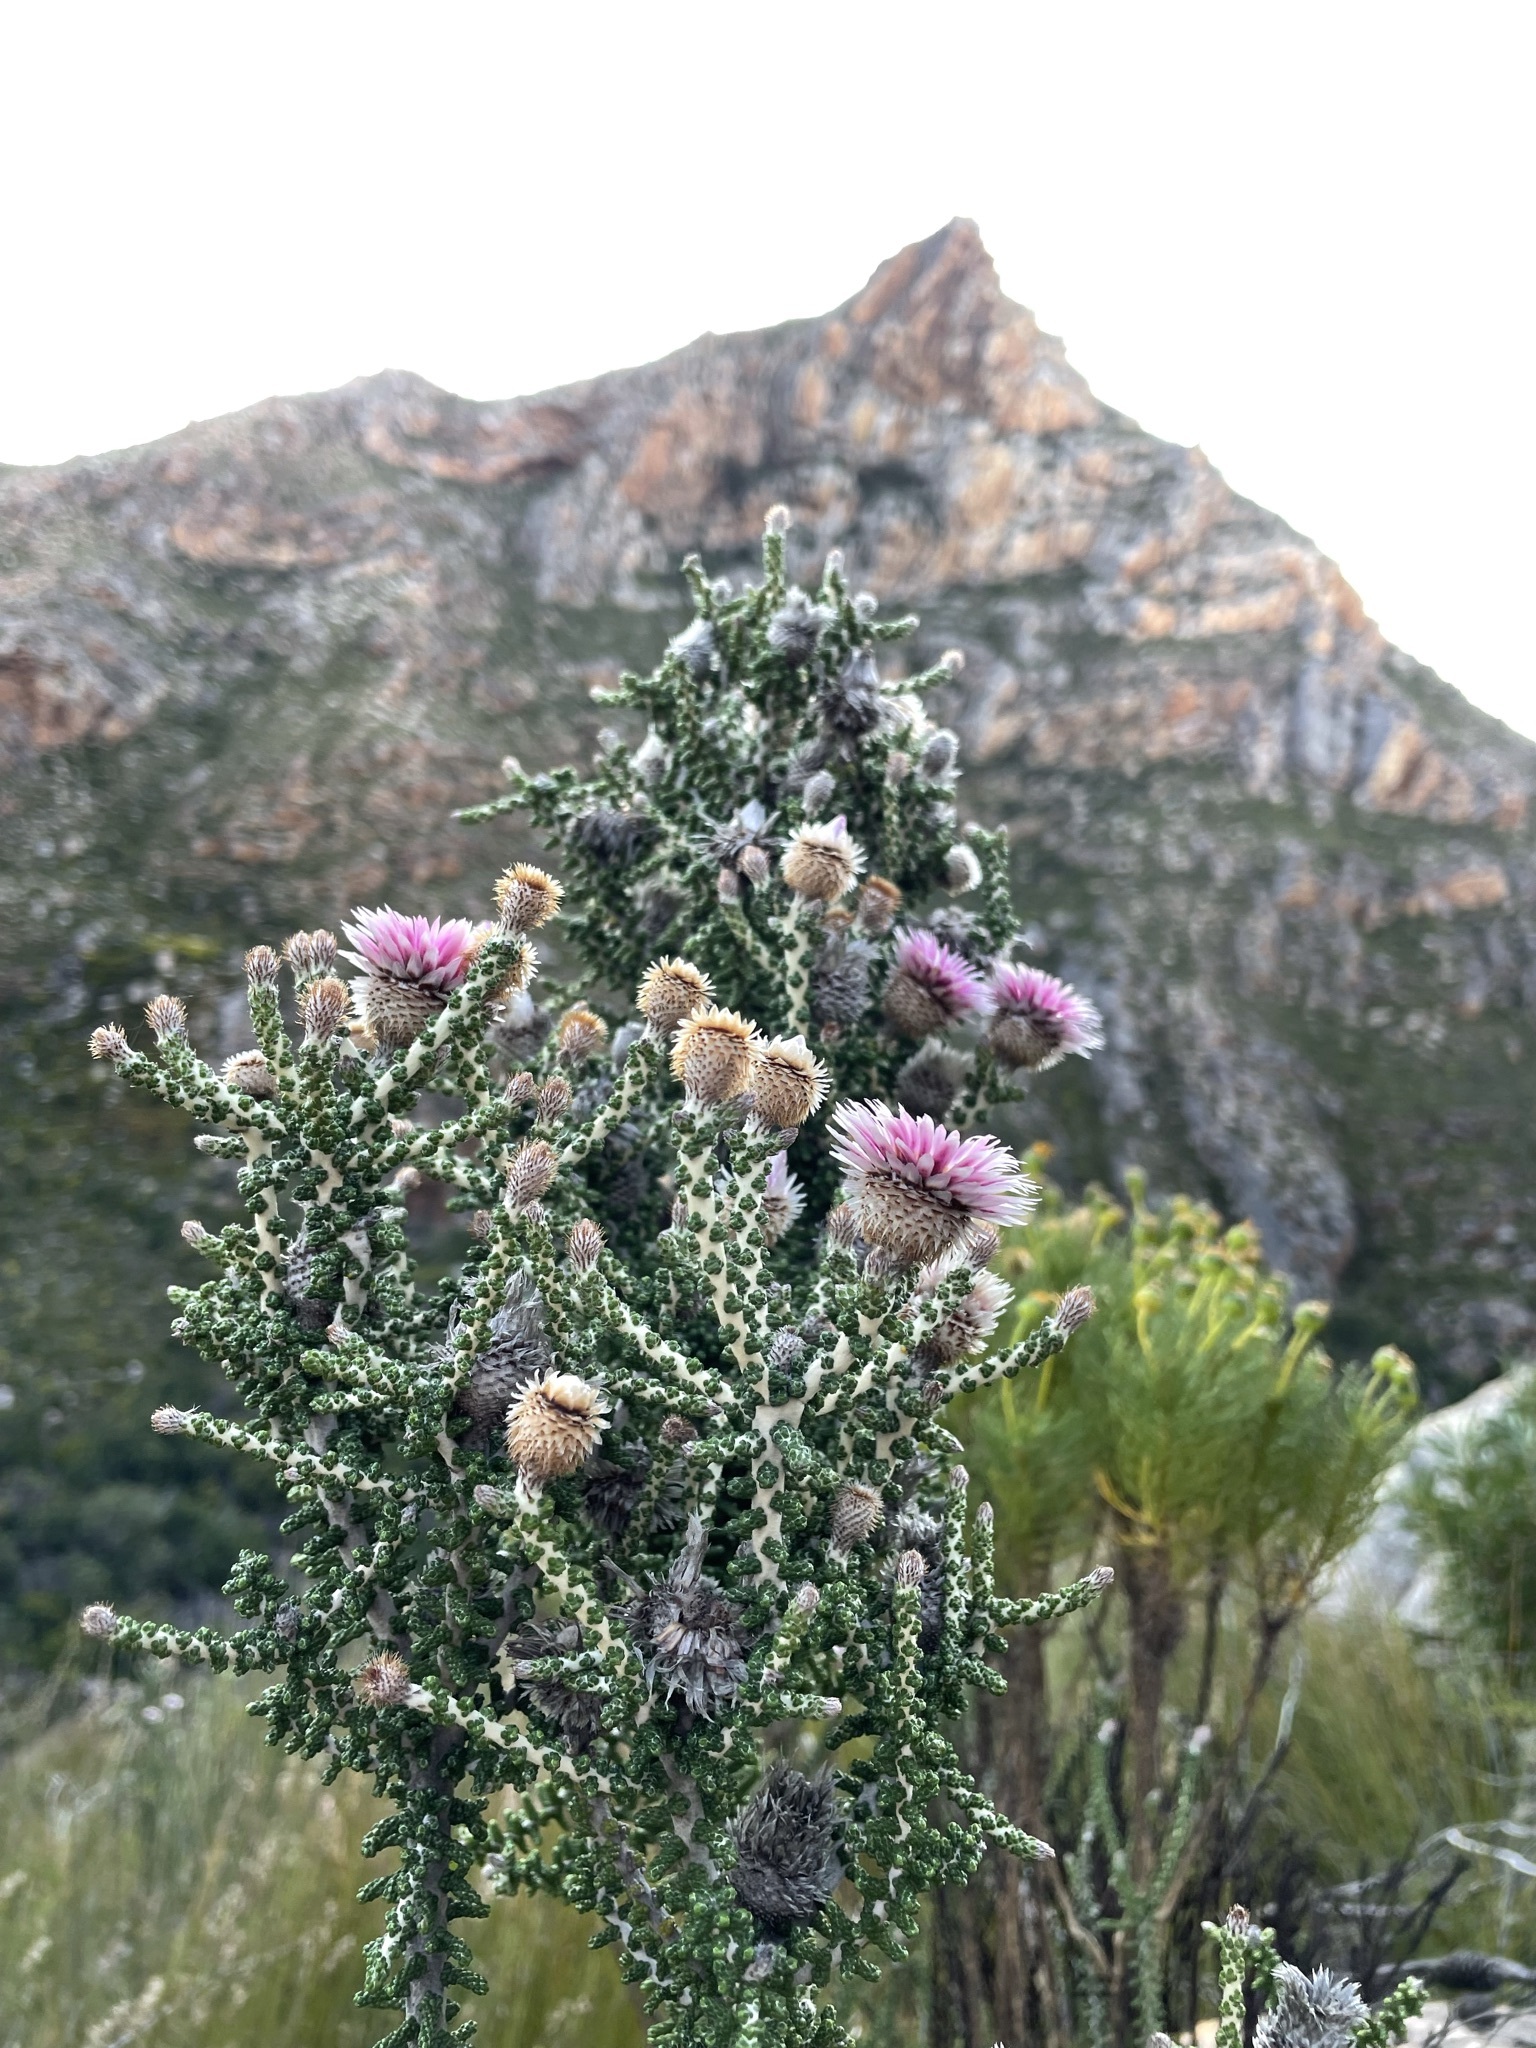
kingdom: Plantae
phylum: Tracheophyta
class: Magnoliopsida
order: Asterales
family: Asteraceae
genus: Phaenocoma
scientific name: Phaenocoma prolifera
